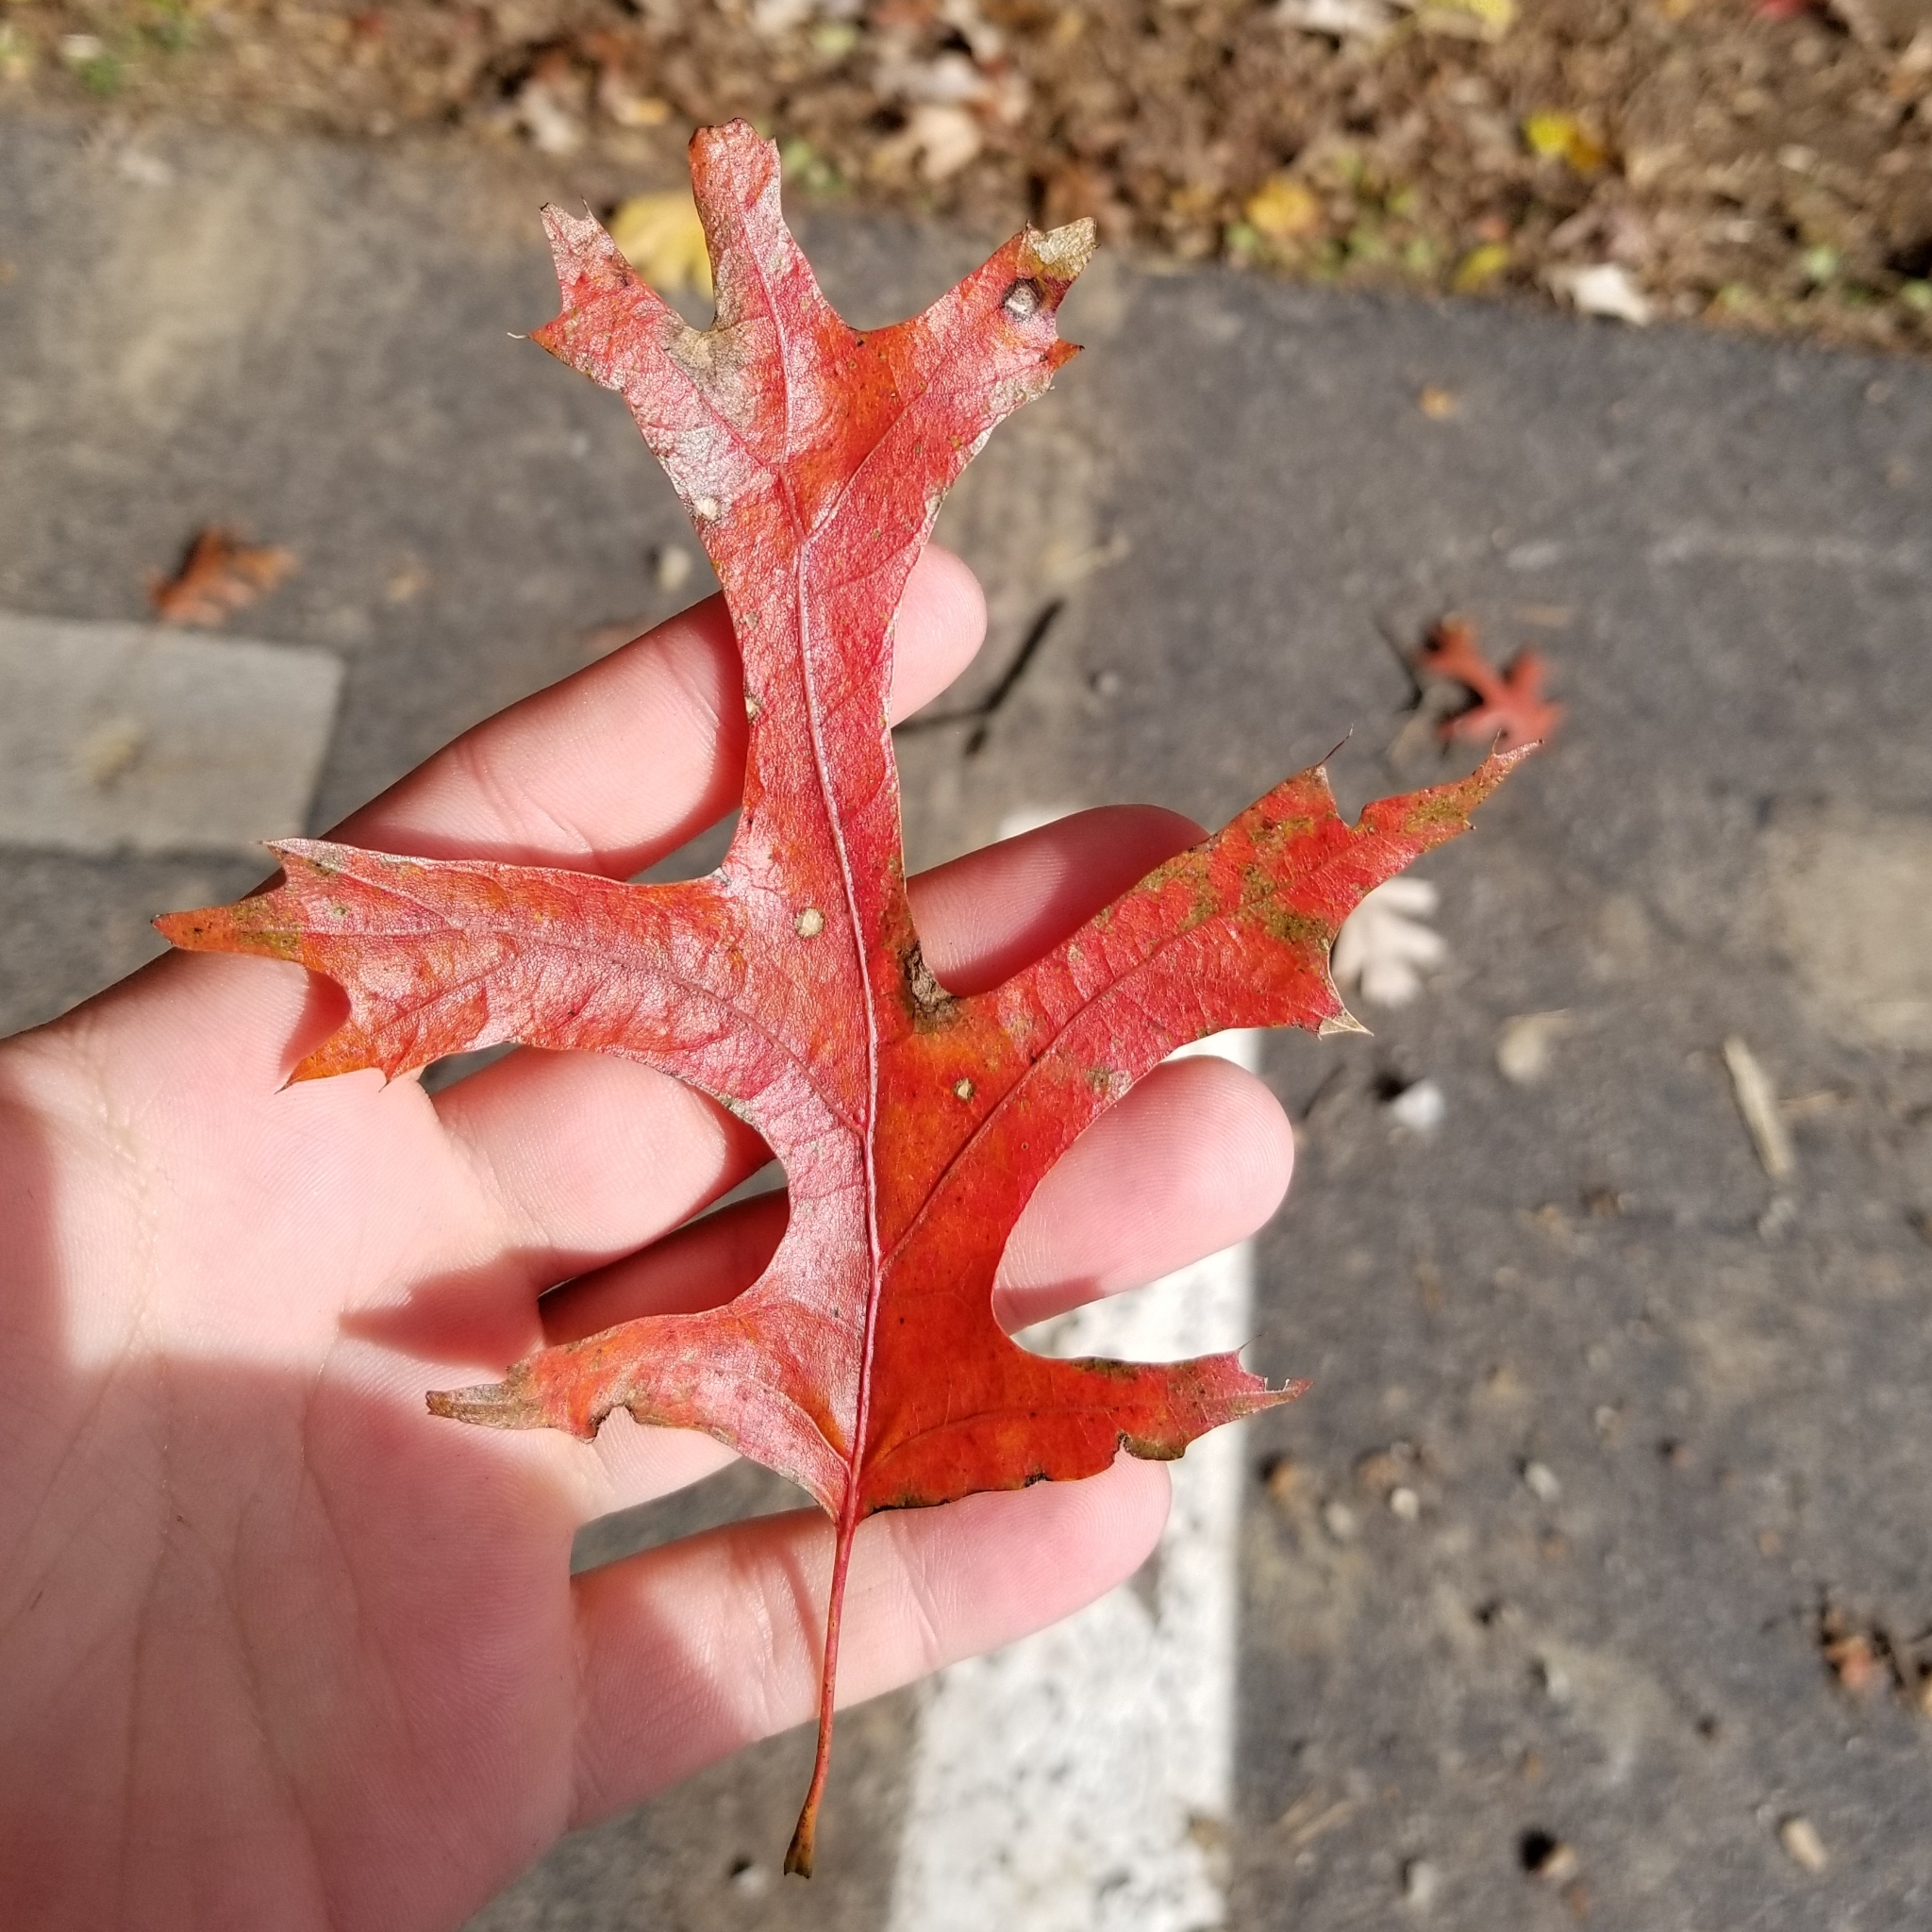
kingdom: Plantae
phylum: Tracheophyta
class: Magnoliopsida
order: Fagales
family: Fagaceae
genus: Quercus
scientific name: Quercus coccinea
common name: Scarlet oak
